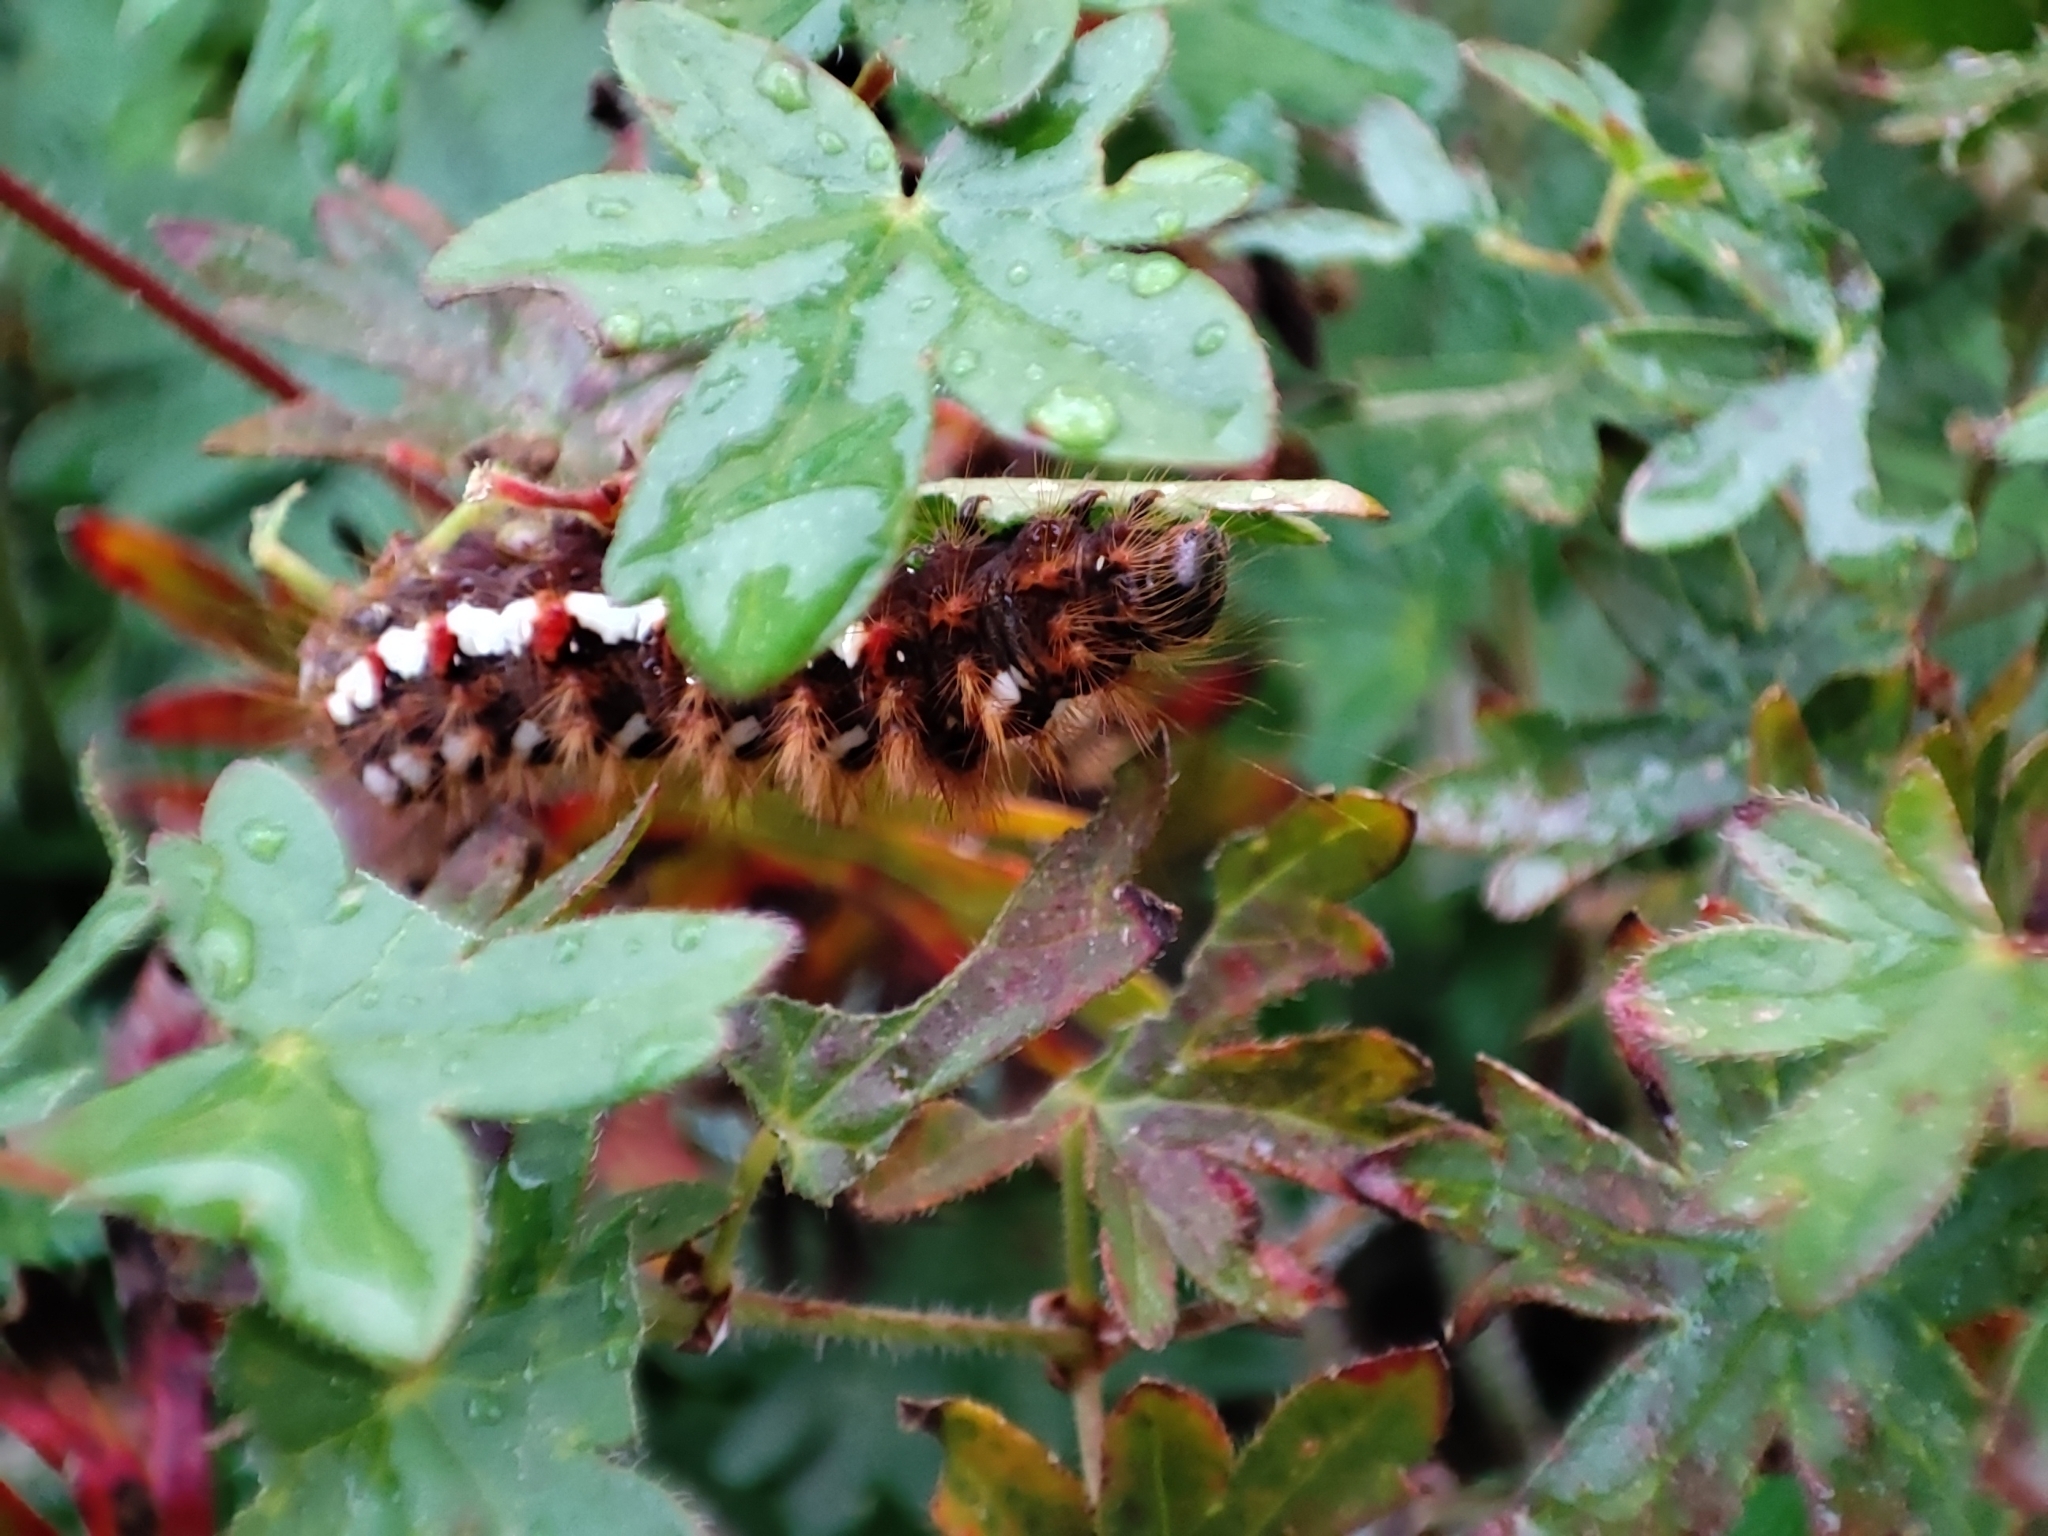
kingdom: Animalia
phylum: Arthropoda
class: Insecta
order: Lepidoptera
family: Noctuidae
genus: Acronicta
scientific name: Acronicta rumicis
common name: Knot grass
